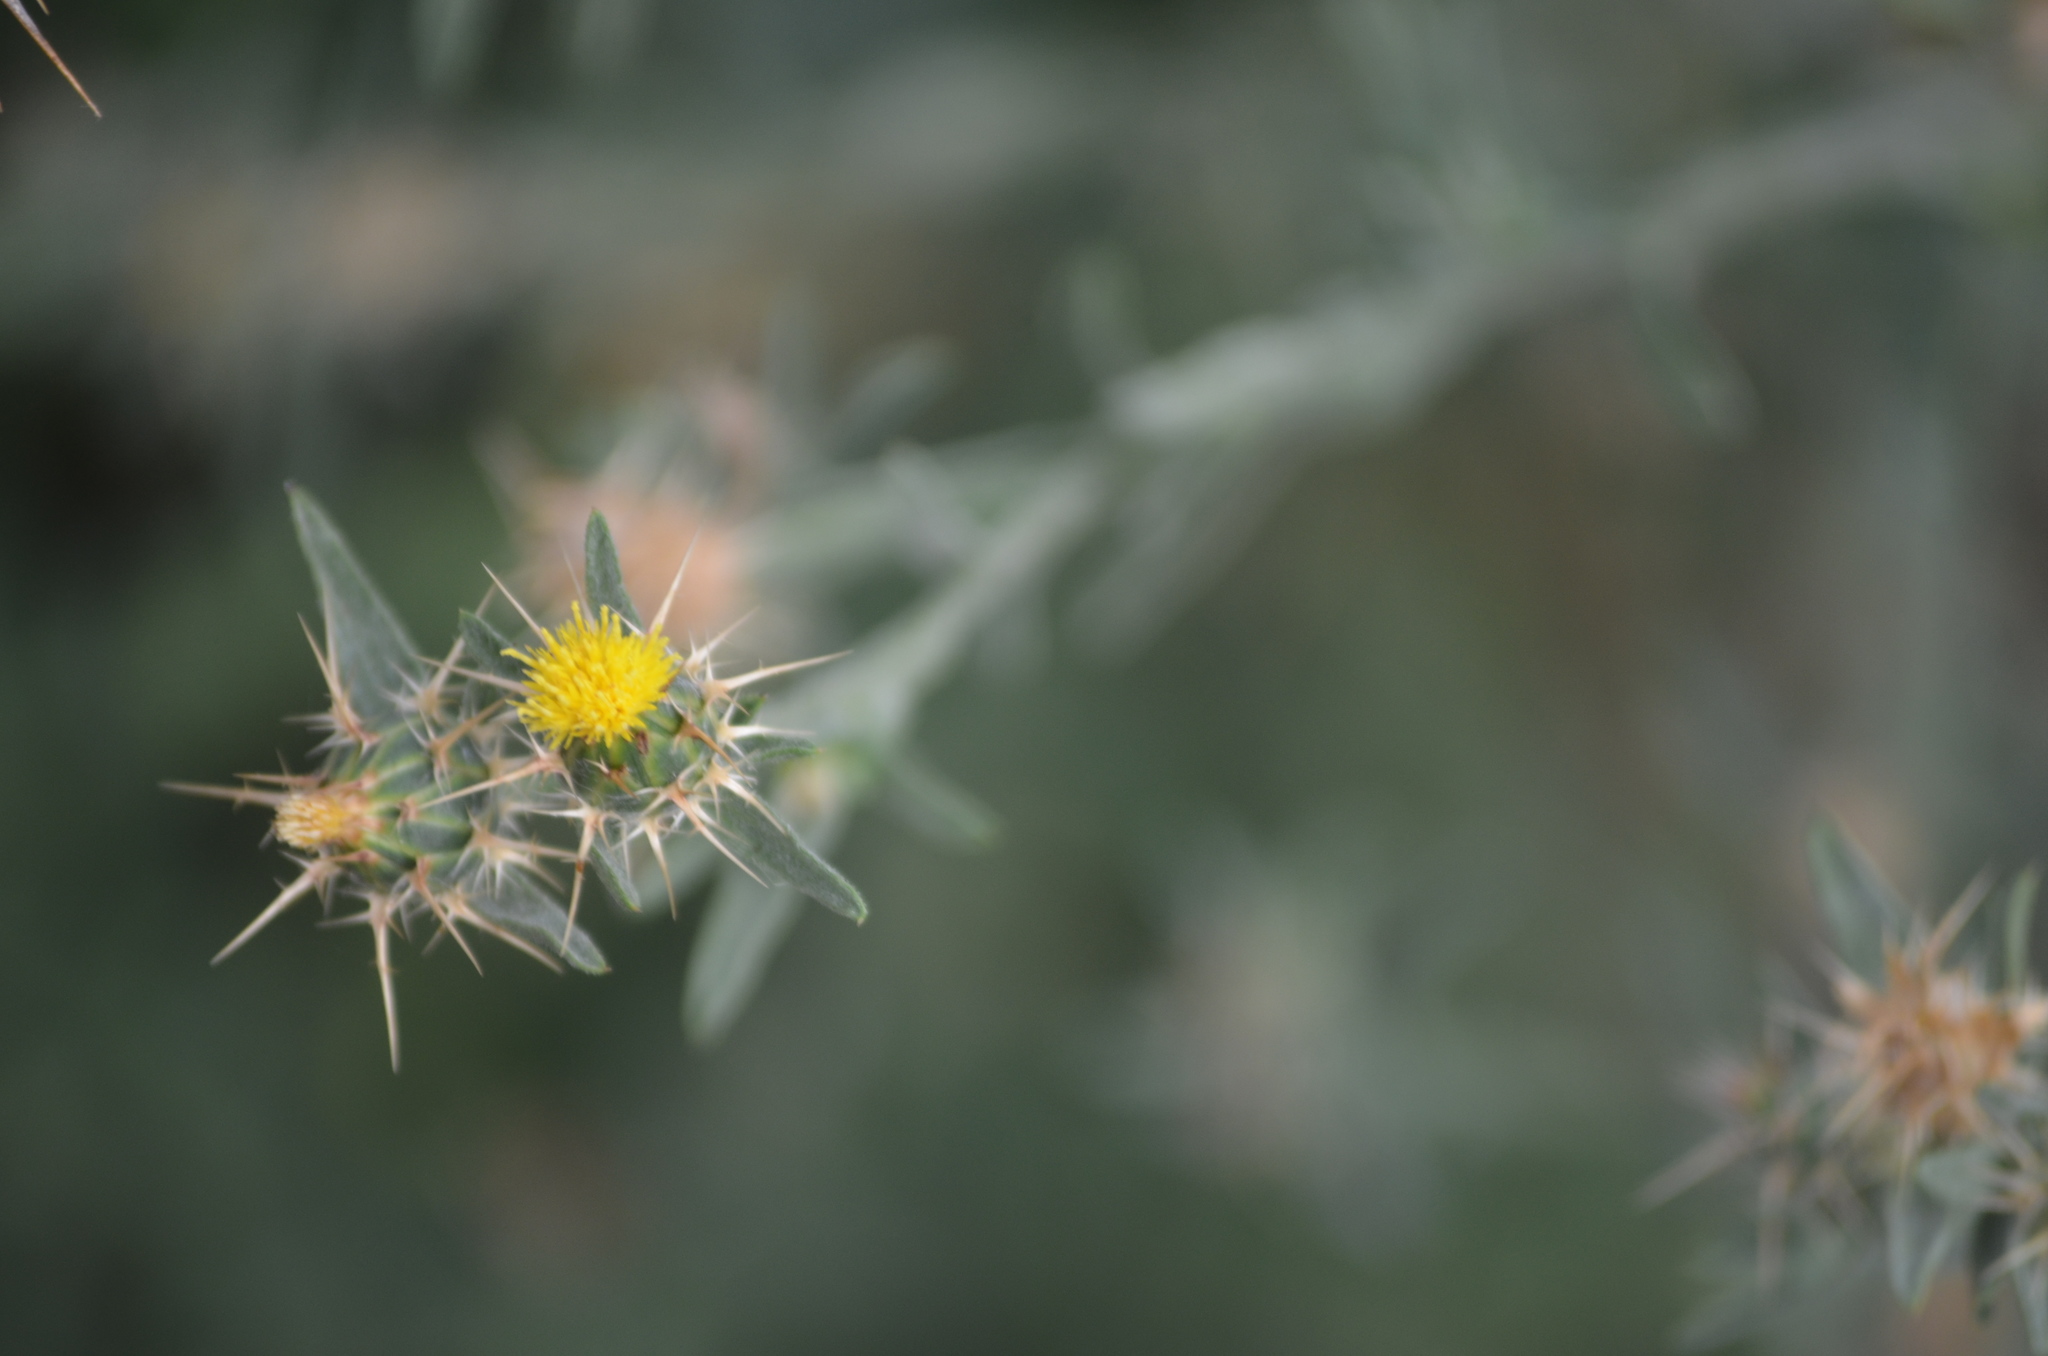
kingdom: Plantae
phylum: Tracheophyta
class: Magnoliopsida
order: Asterales
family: Asteraceae
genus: Centaurea
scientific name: Centaurea melitensis
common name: Maltese star-thistle
